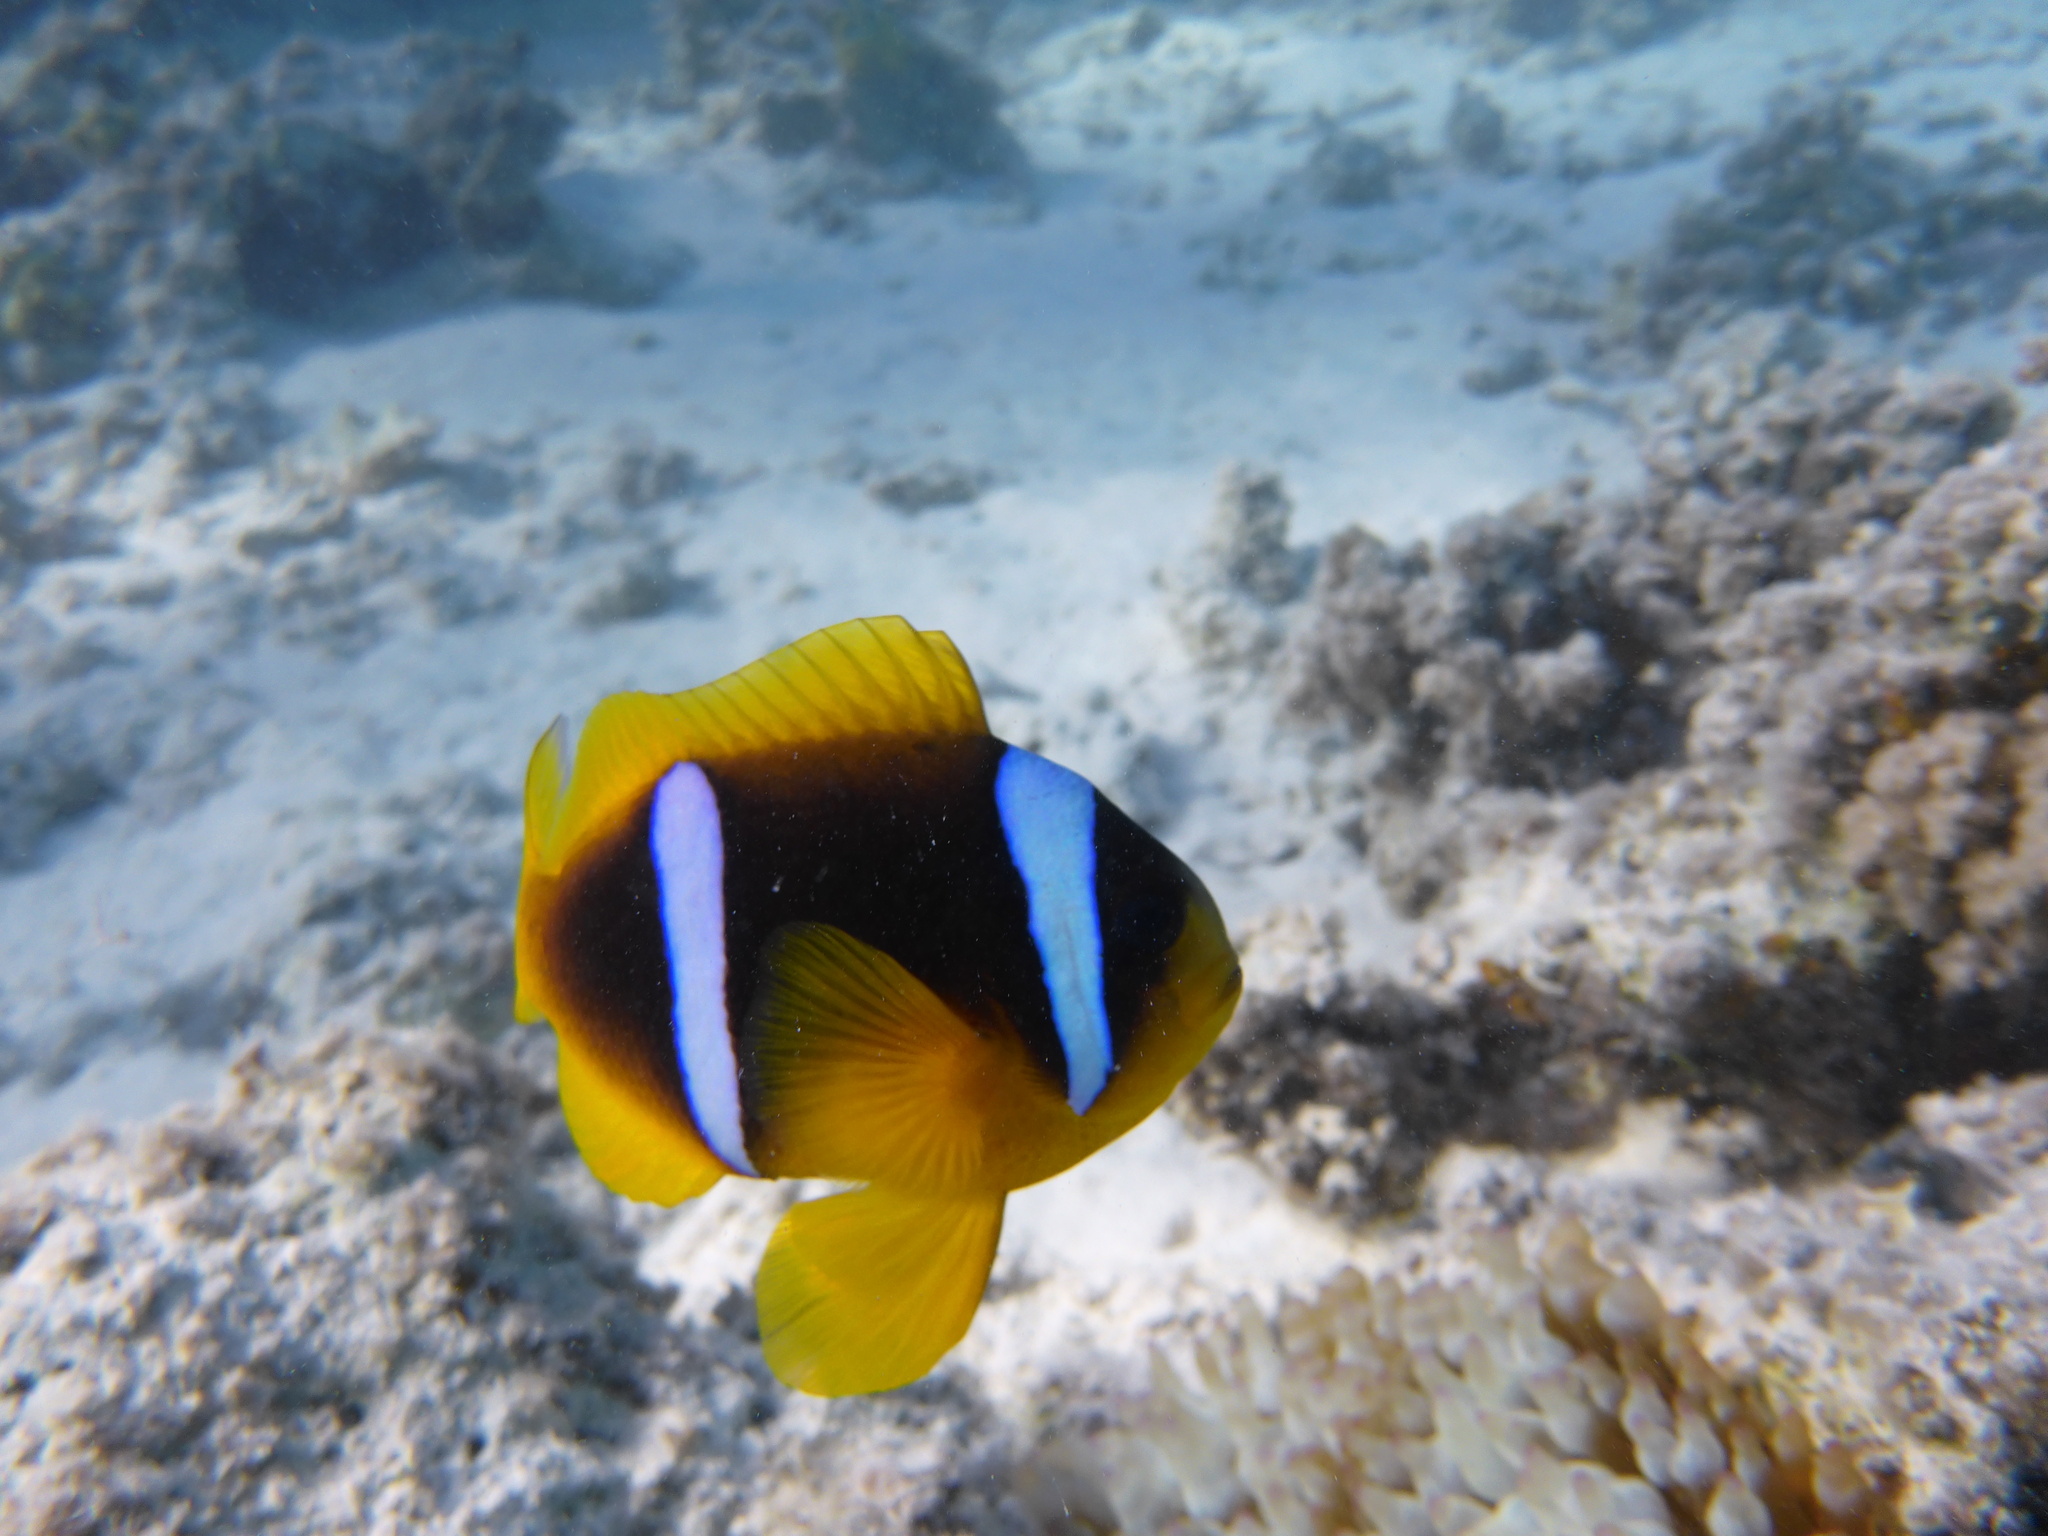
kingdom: Animalia
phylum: Chordata
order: Perciformes
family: Pomacentridae
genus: Amphiprion
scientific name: Amphiprion bicinctus
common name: Two-banded anemonefish
